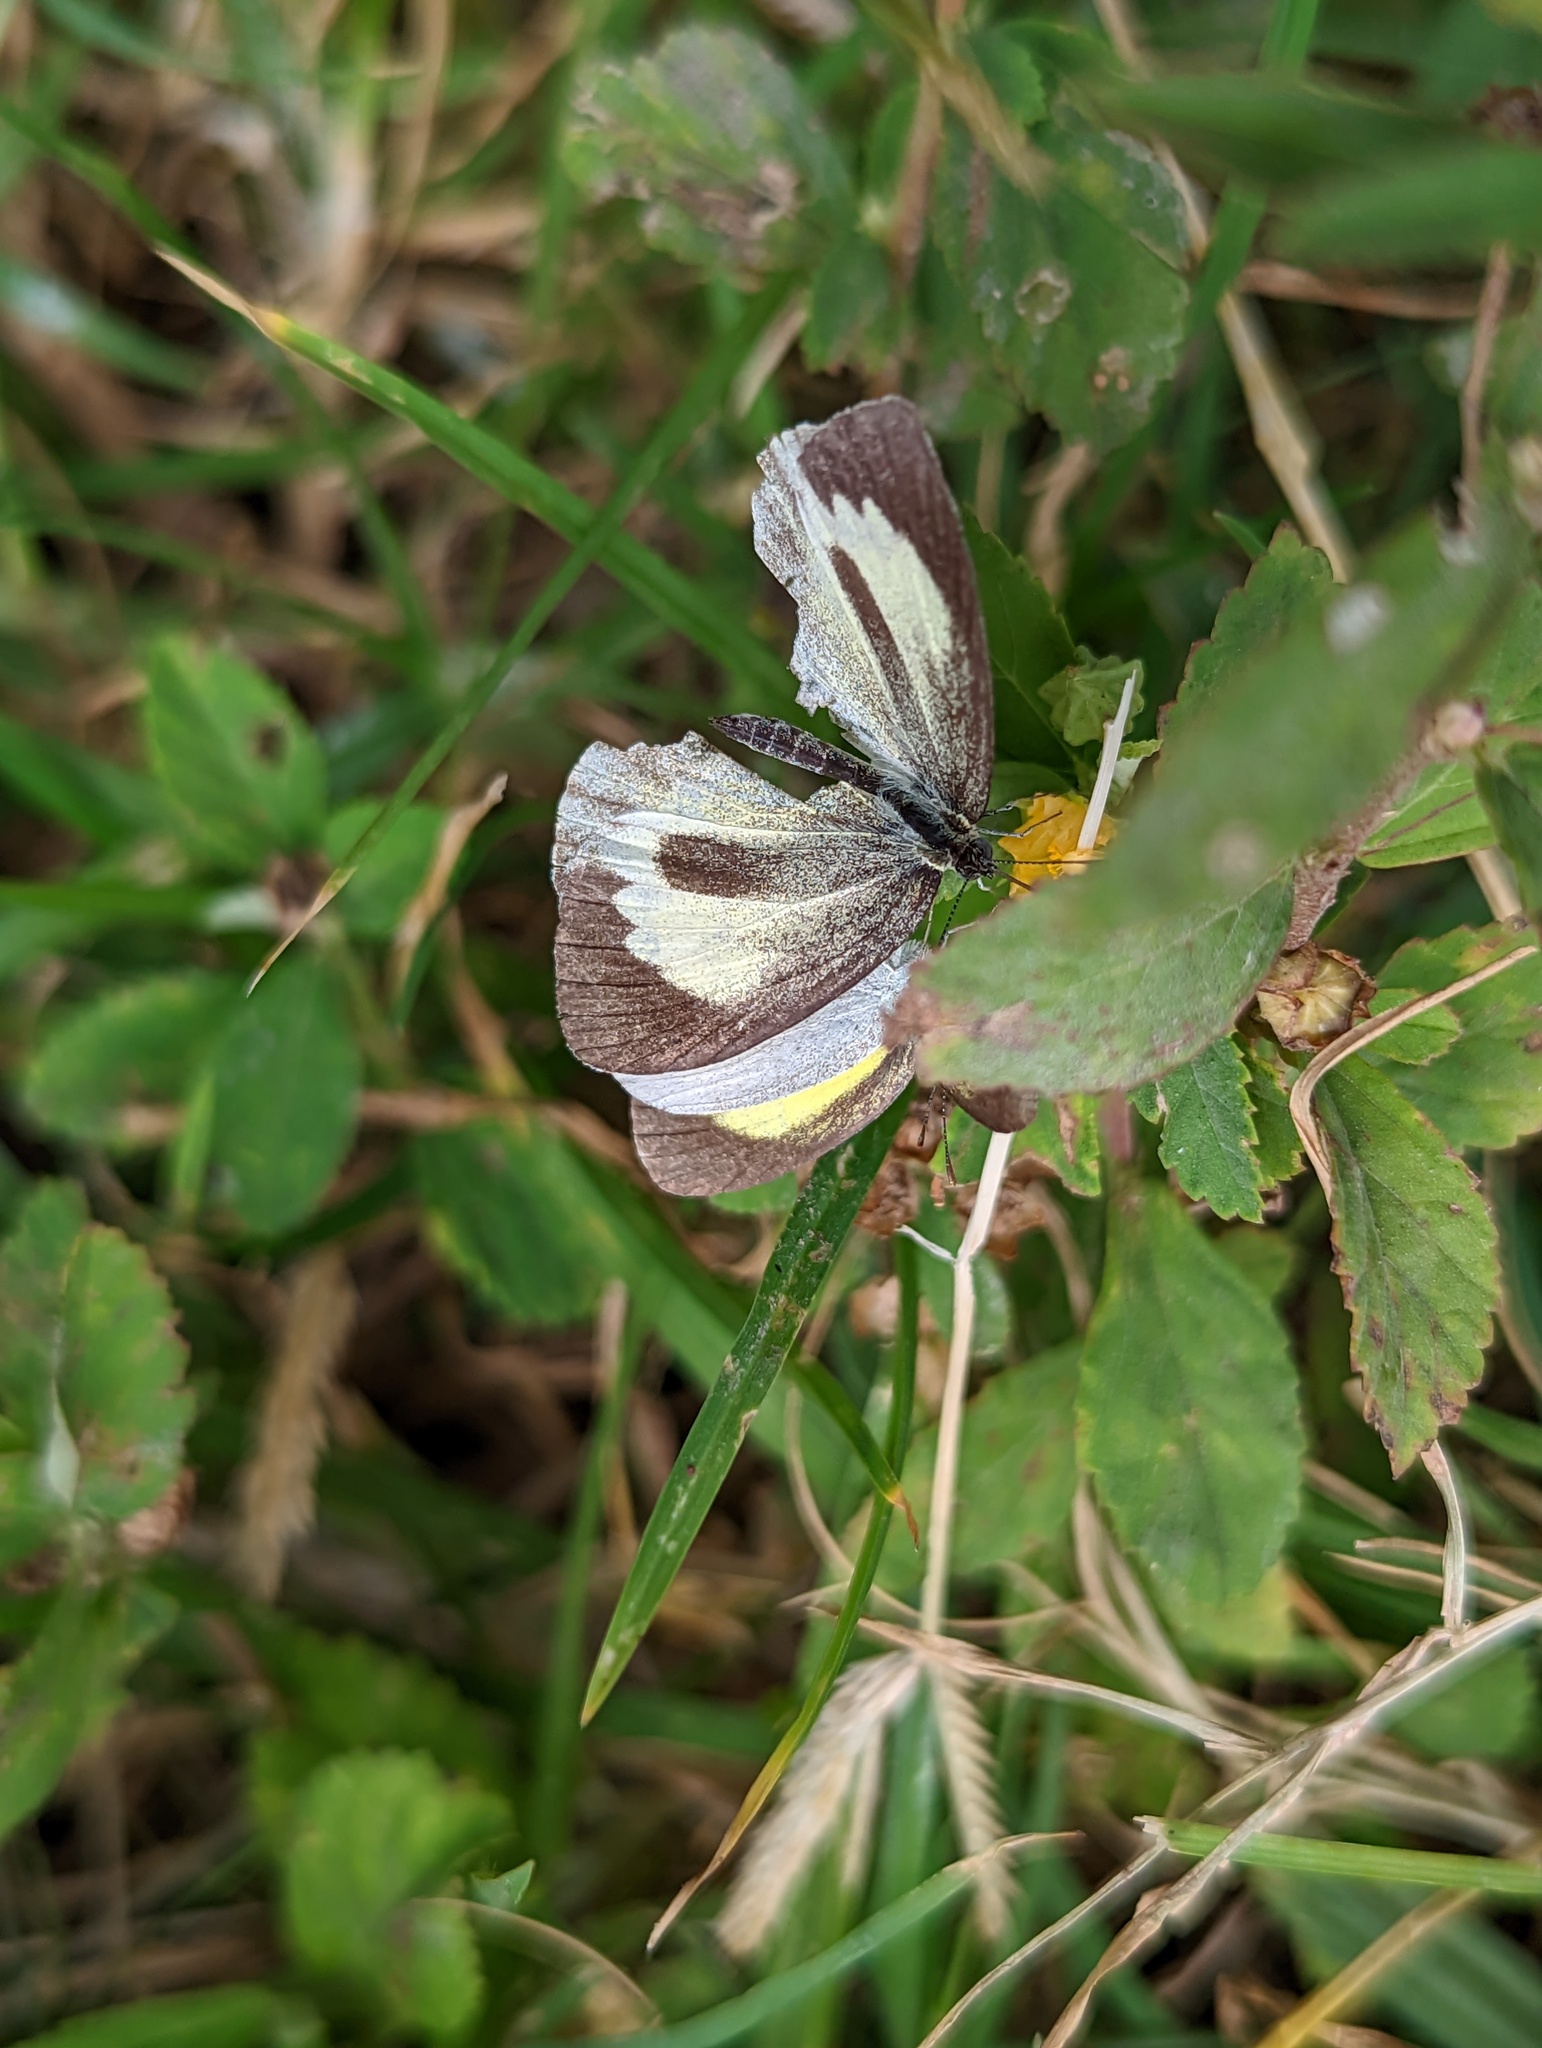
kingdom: Animalia
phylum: Arthropoda
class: Insecta
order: Lepidoptera
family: Pieridae
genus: Eurema
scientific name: Eurema daira
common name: Barred sulphur
